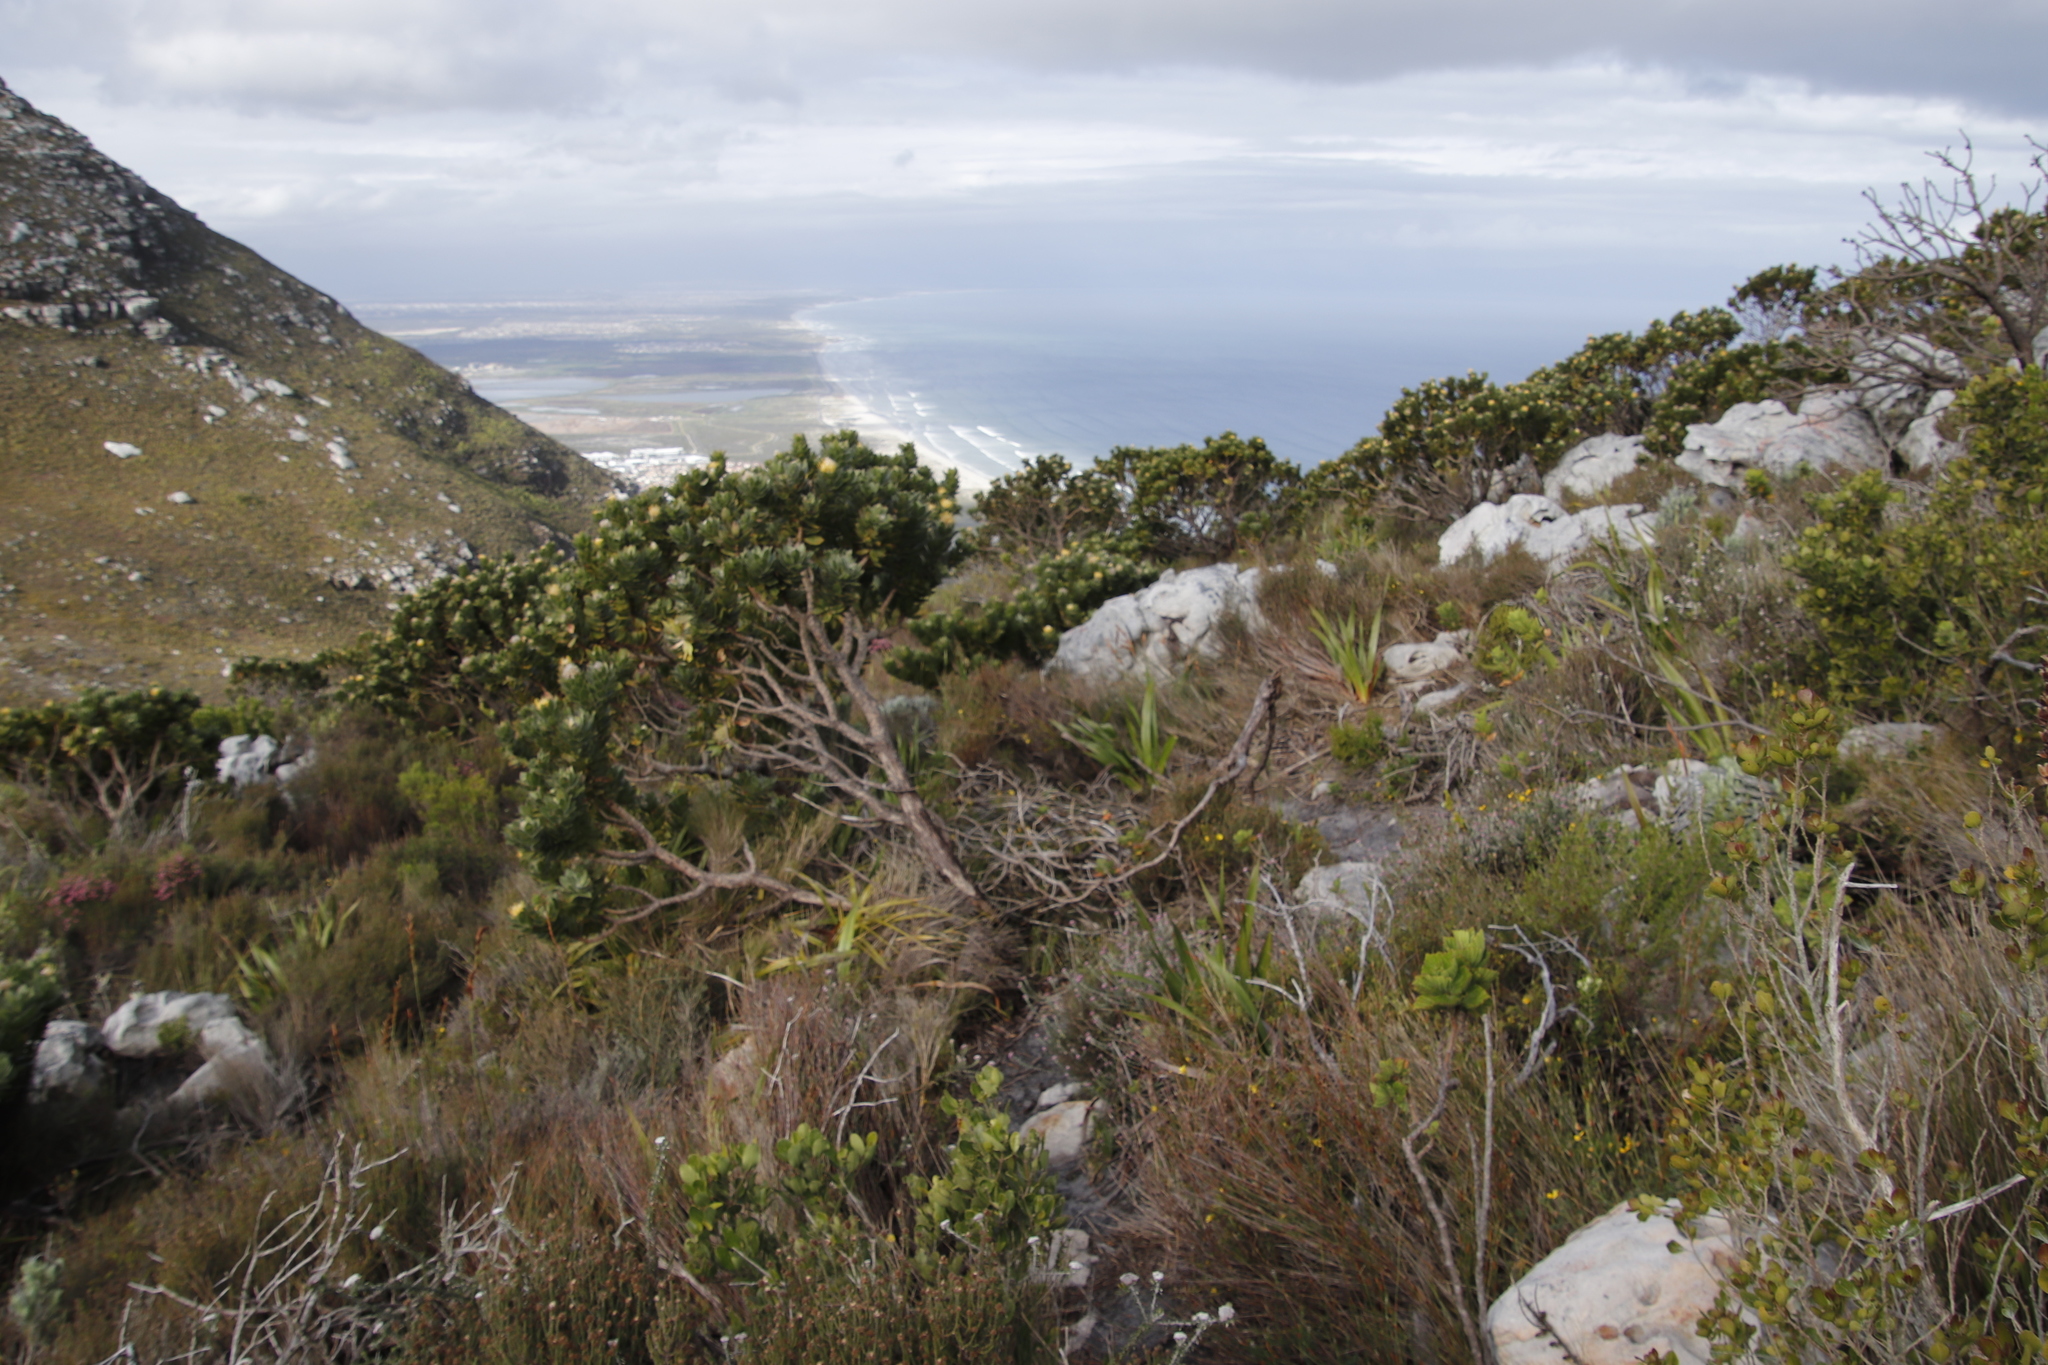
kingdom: Plantae
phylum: Tracheophyta
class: Magnoliopsida
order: Proteales
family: Proteaceae
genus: Leucospermum
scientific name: Leucospermum conocarpodendron
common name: Tree pincushion
